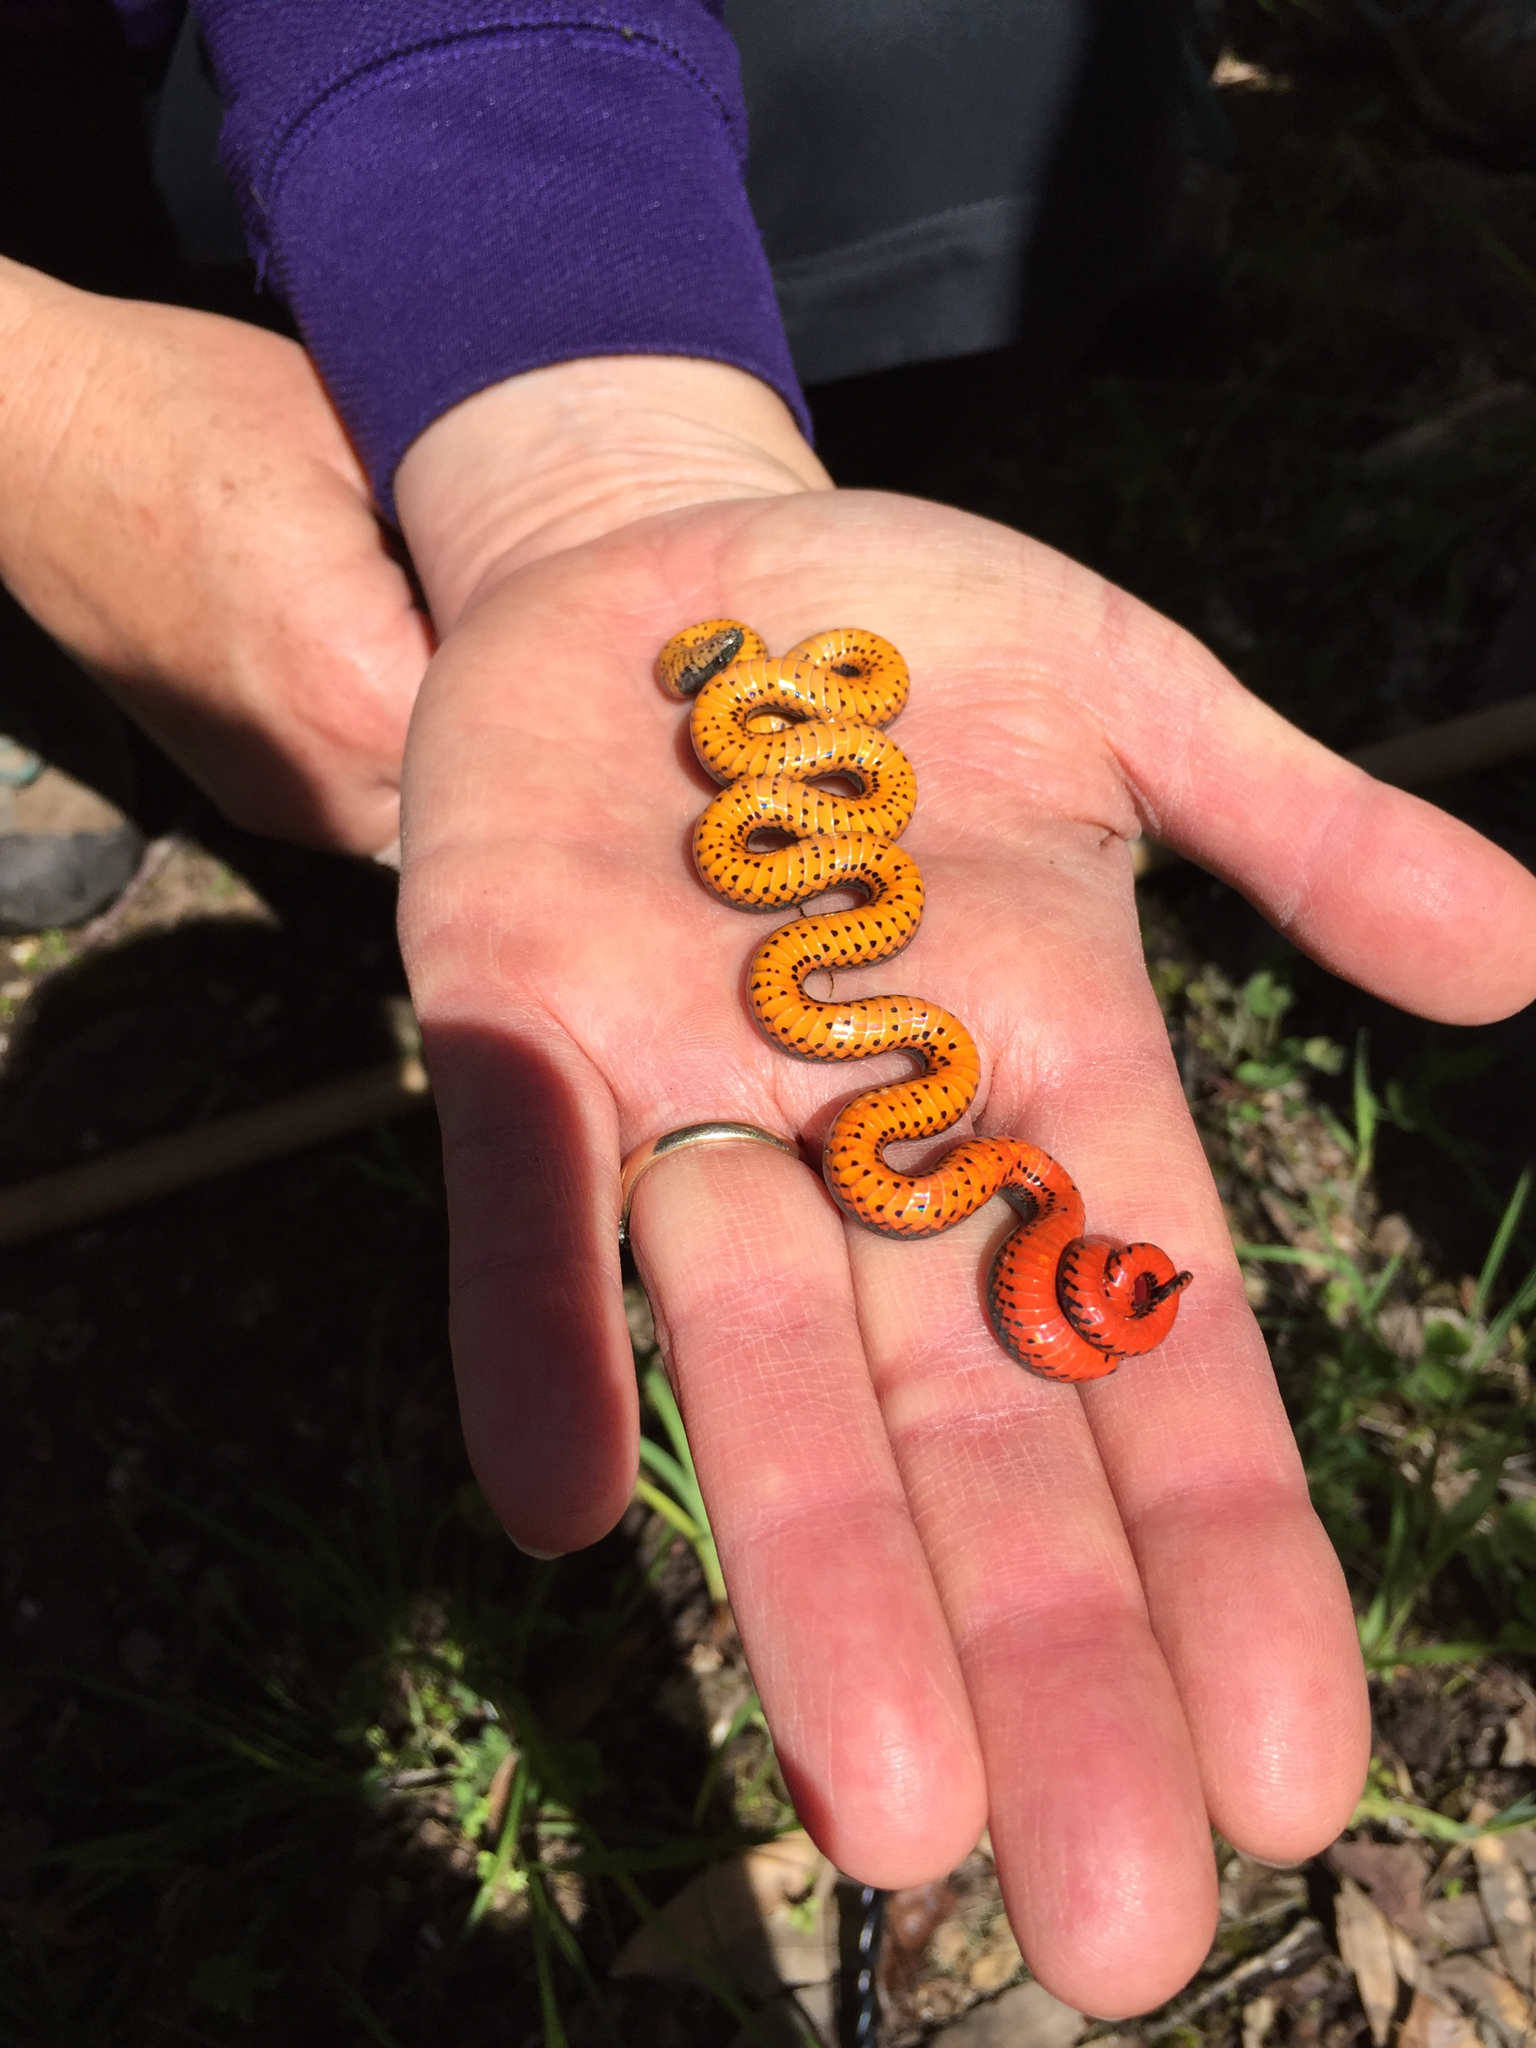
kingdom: Animalia
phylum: Chordata
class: Squamata
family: Colubridae
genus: Diadophis
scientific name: Diadophis punctatus
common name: Ringneck snake
